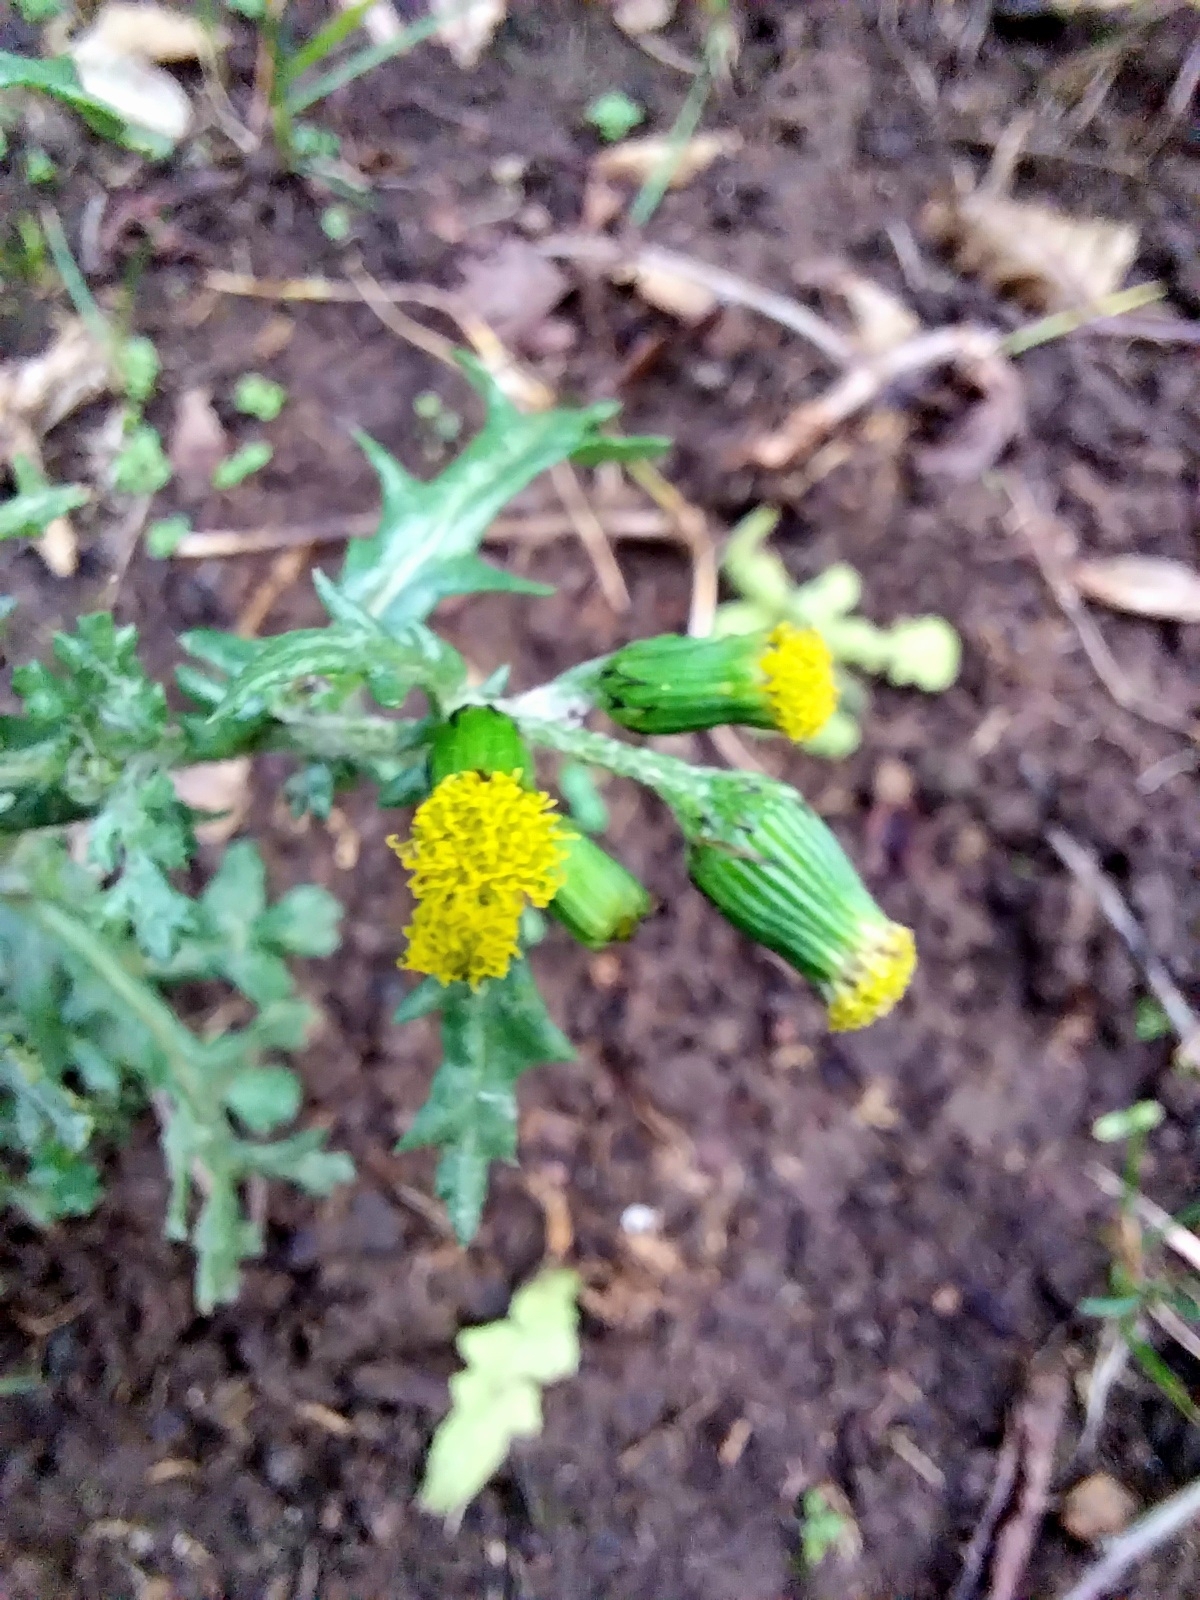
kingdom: Plantae
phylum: Tracheophyta
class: Magnoliopsida
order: Asterales
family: Asteraceae
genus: Senecio
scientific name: Senecio vulgaris
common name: Old-man-in-the-spring
